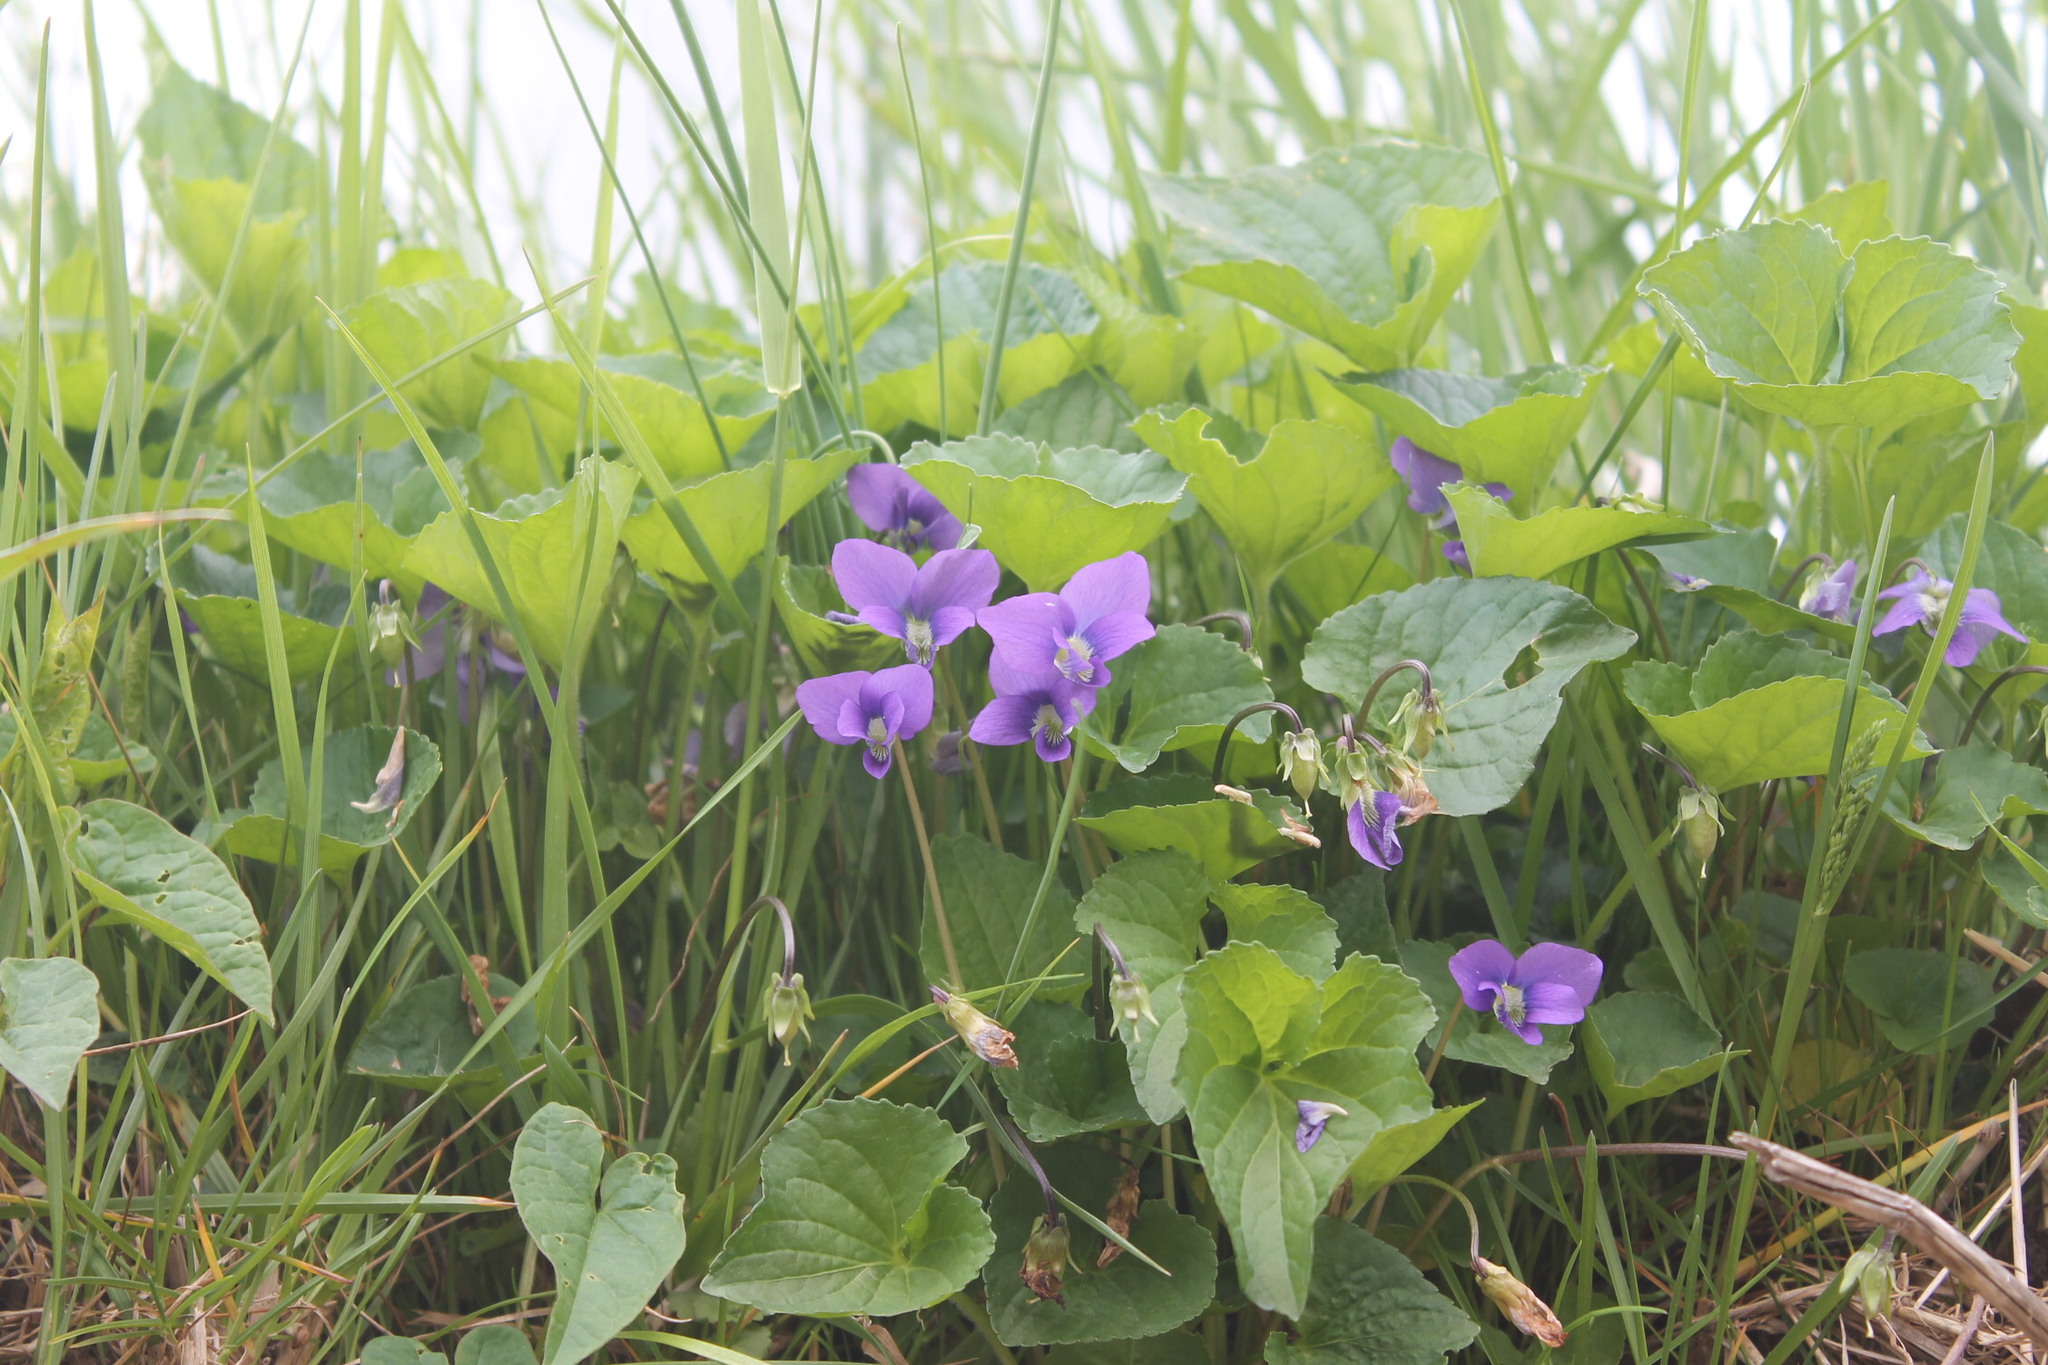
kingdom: Plantae
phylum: Tracheophyta
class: Magnoliopsida
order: Malpighiales
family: Violaceae
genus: Viola
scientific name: Viola sororia
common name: Dooryard violet
